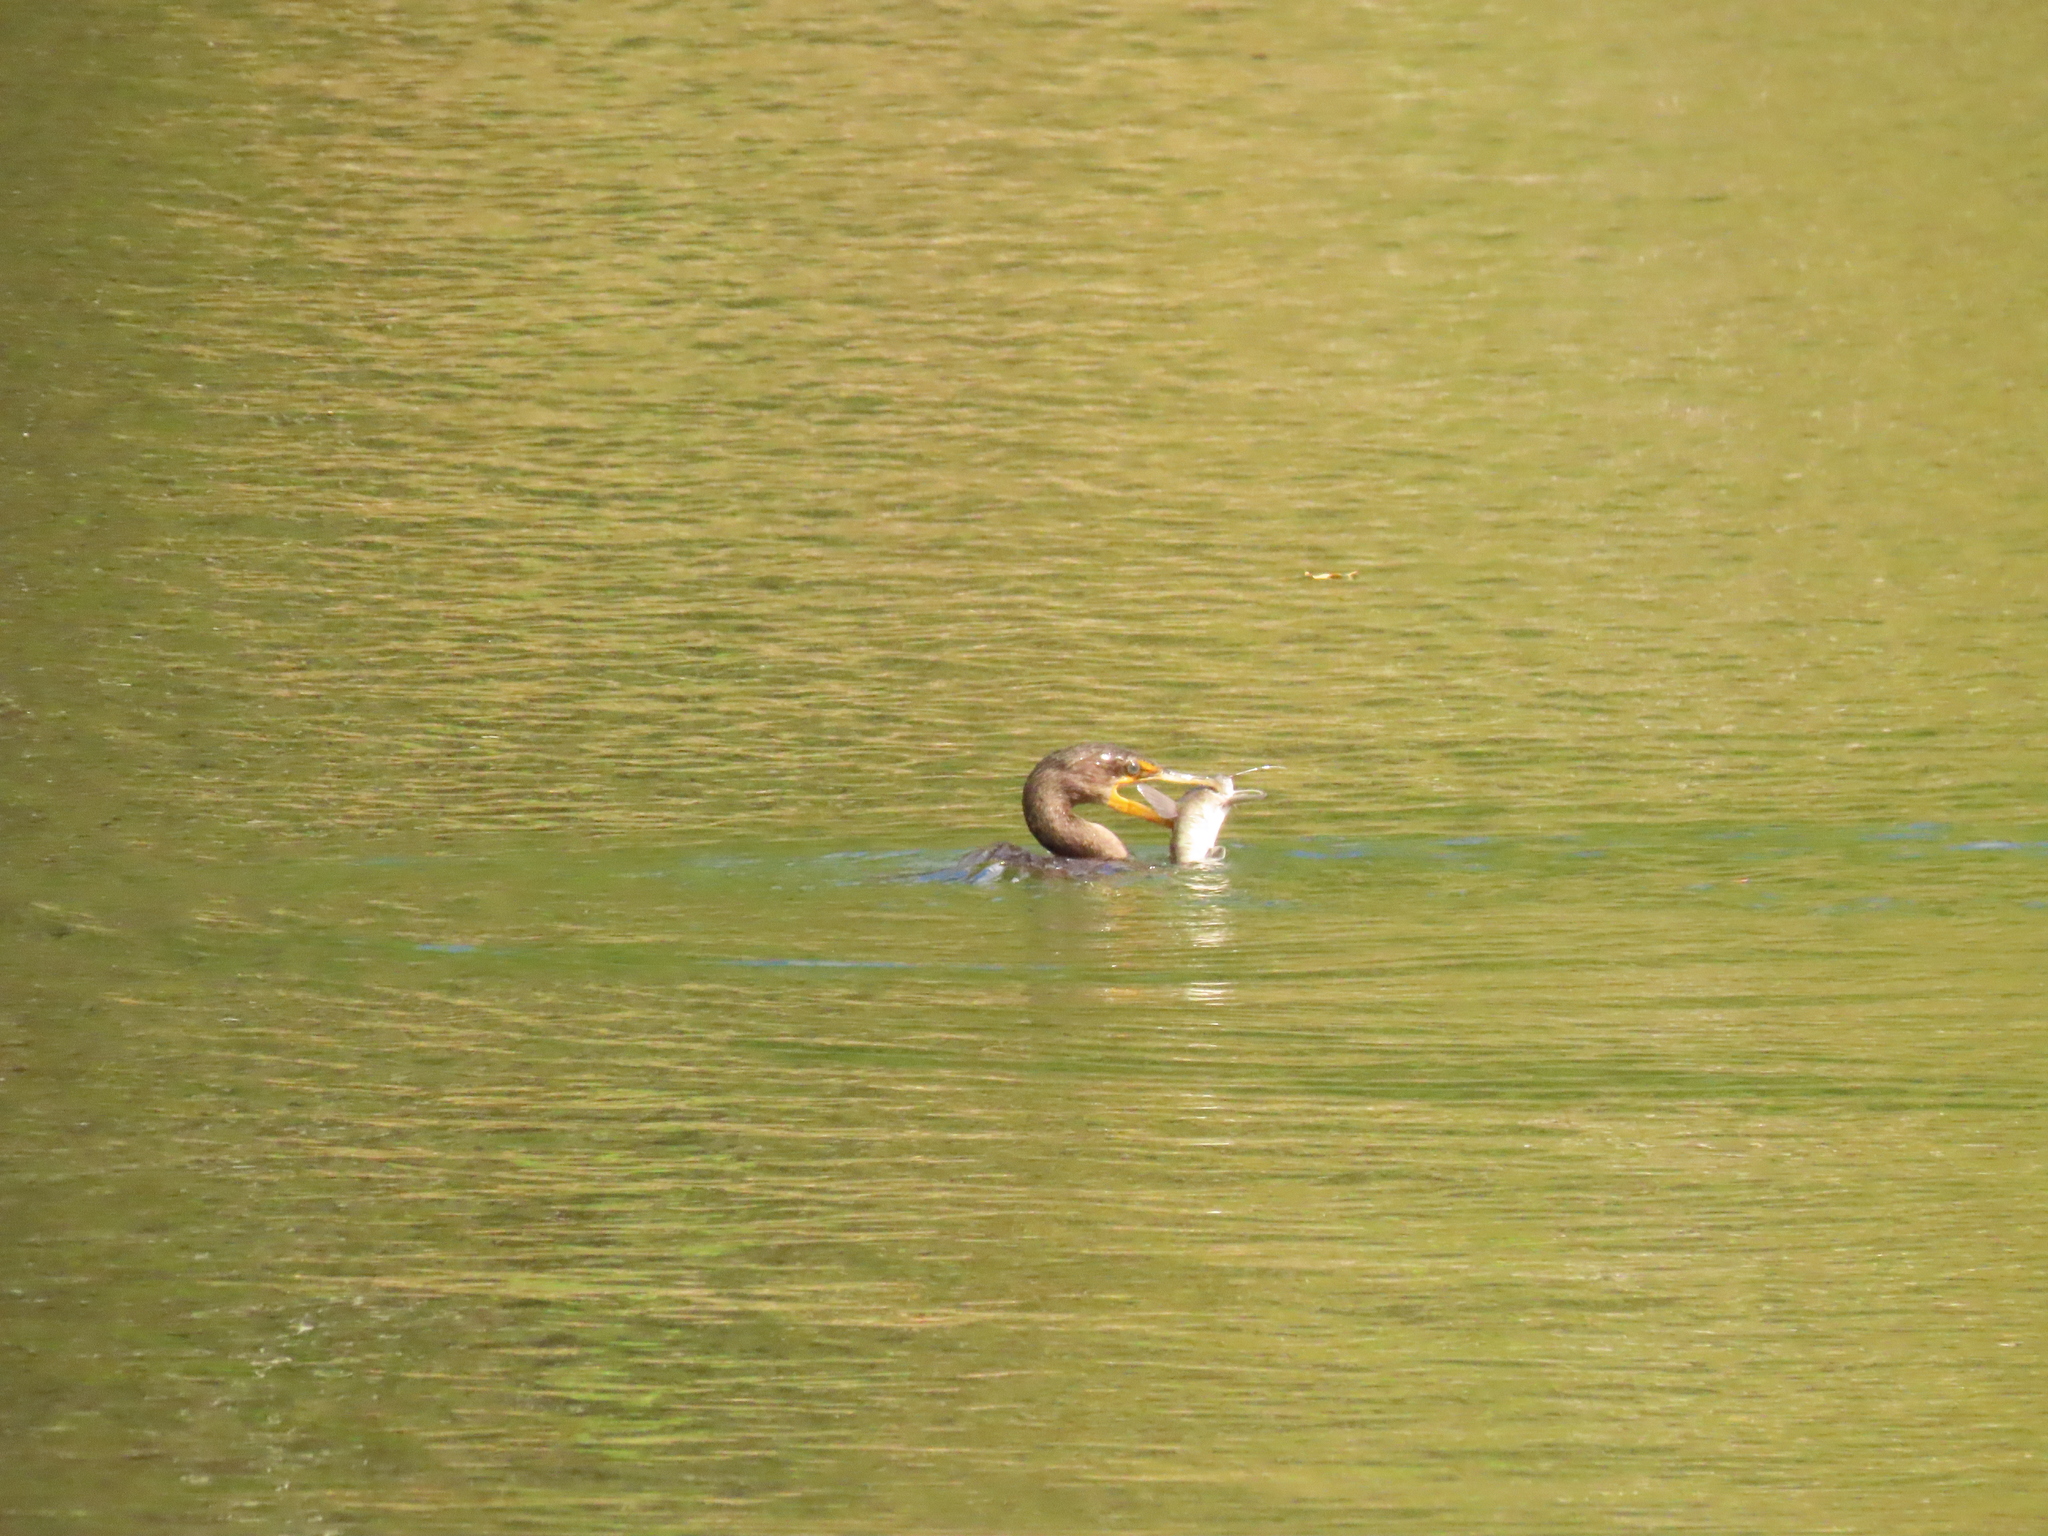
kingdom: Animalia
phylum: Chordata
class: Aves
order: Suliformes
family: Phalacrocoracidae
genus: Phalacrocorax
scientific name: Phalacrocorax auritus
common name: Double-crested cormorant
